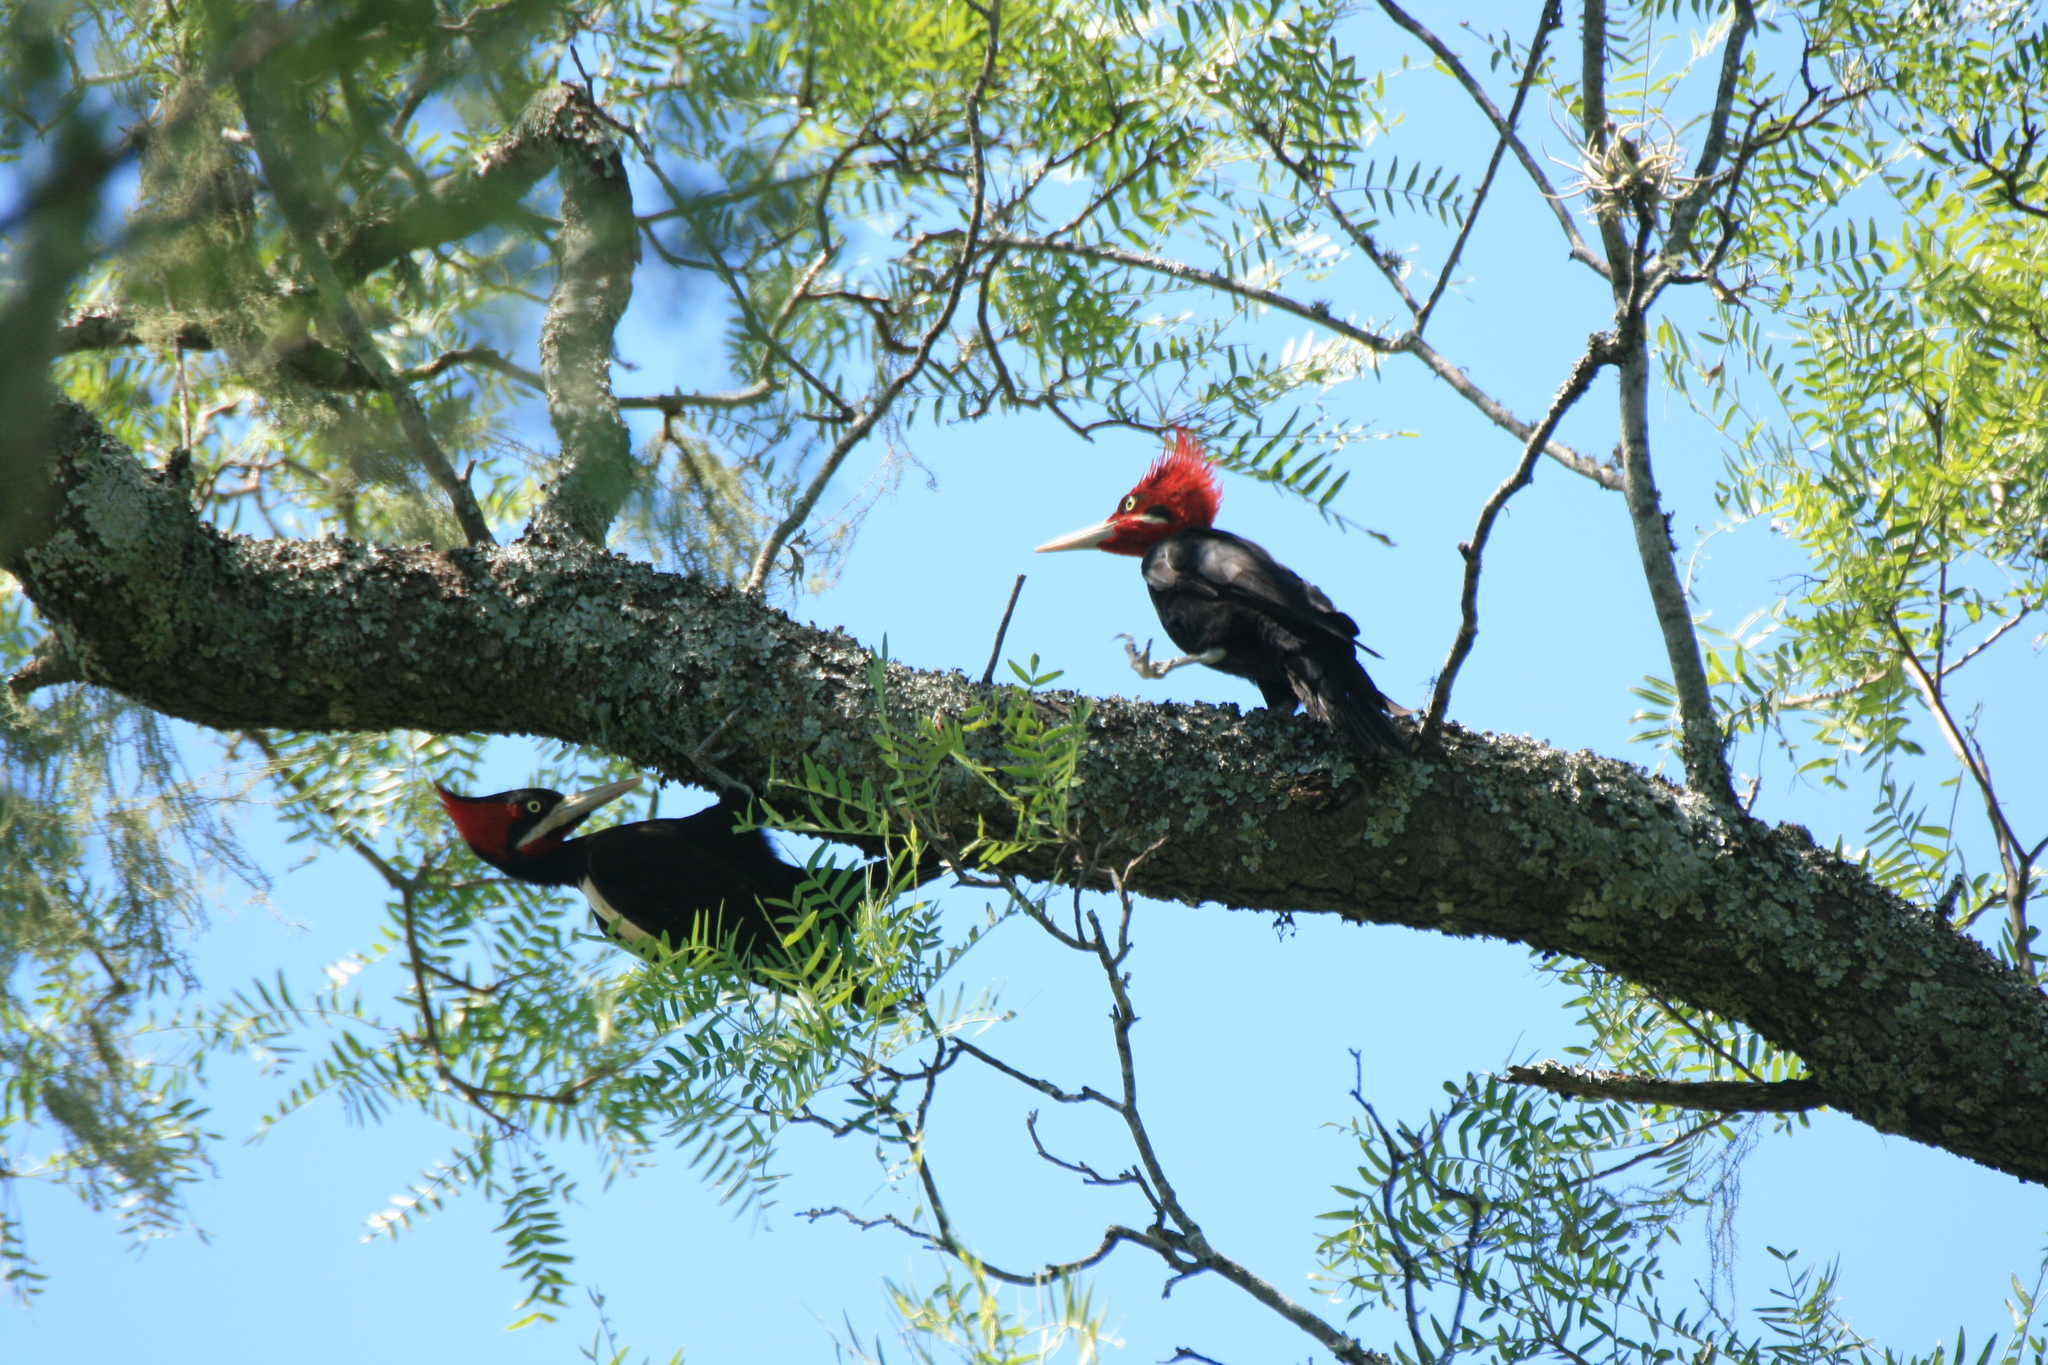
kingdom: Animalia
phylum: Chordata
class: Aves
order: Piciformes
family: Picidae
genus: Campephilus
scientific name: Campephilus leucopogon
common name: Cream-backed woodpecker
